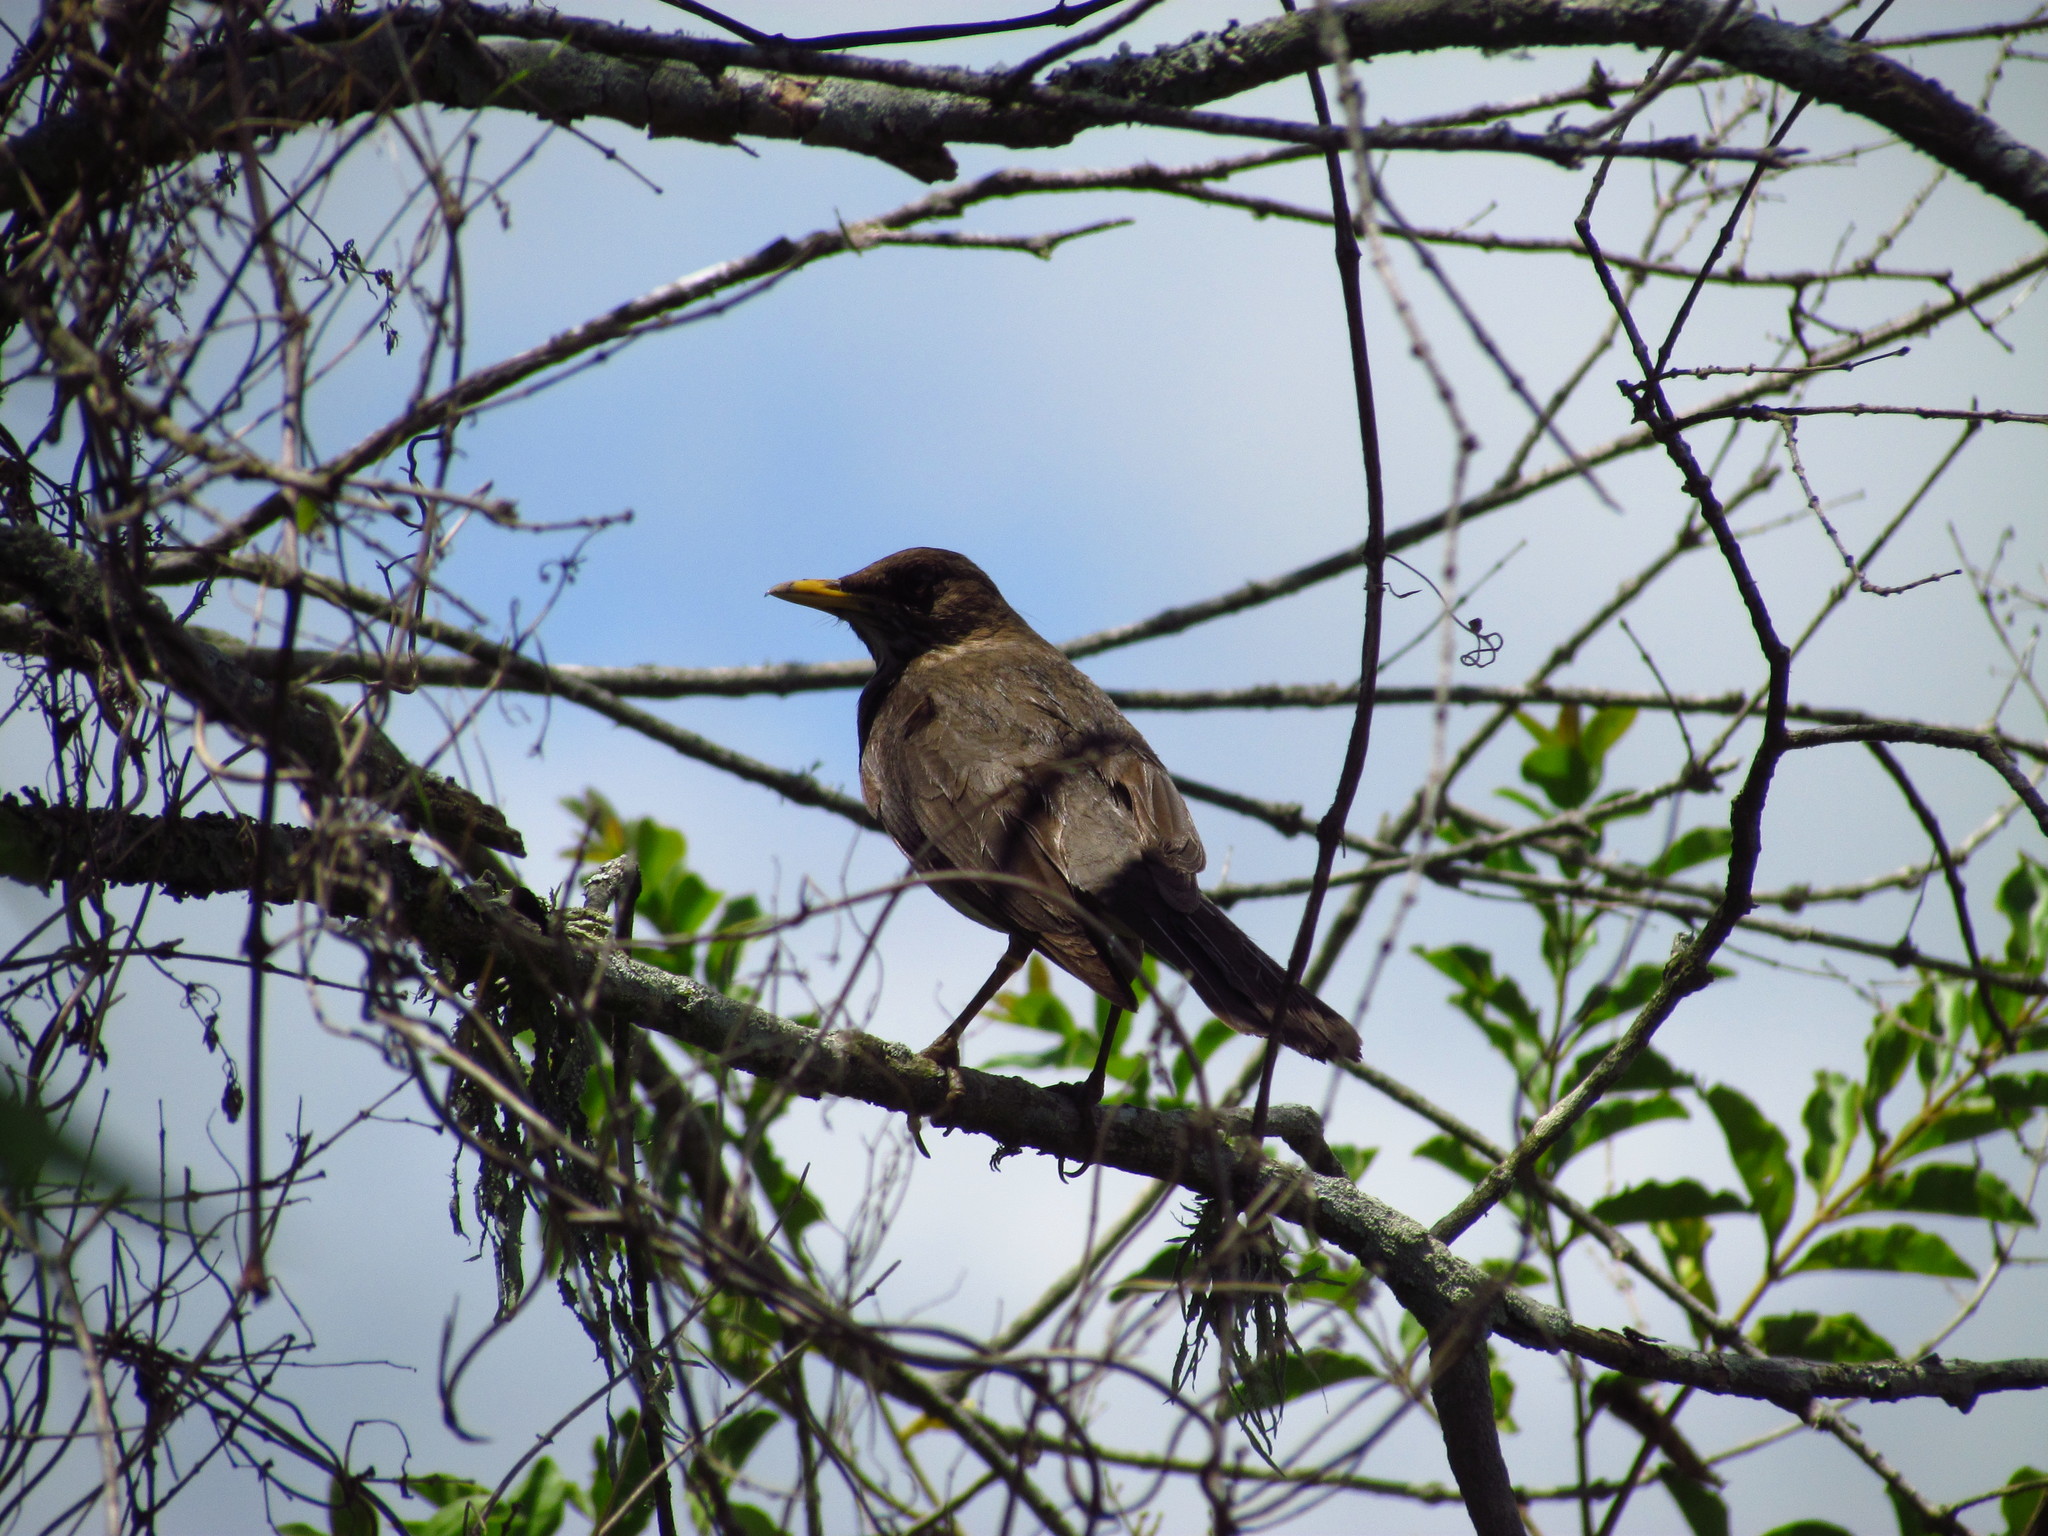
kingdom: Animalia
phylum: Chordata
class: Aves
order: Passeriformes
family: Turdidae
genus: Turdus
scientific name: Turdus amaurochalinus
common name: Creamy-bellied thrush
